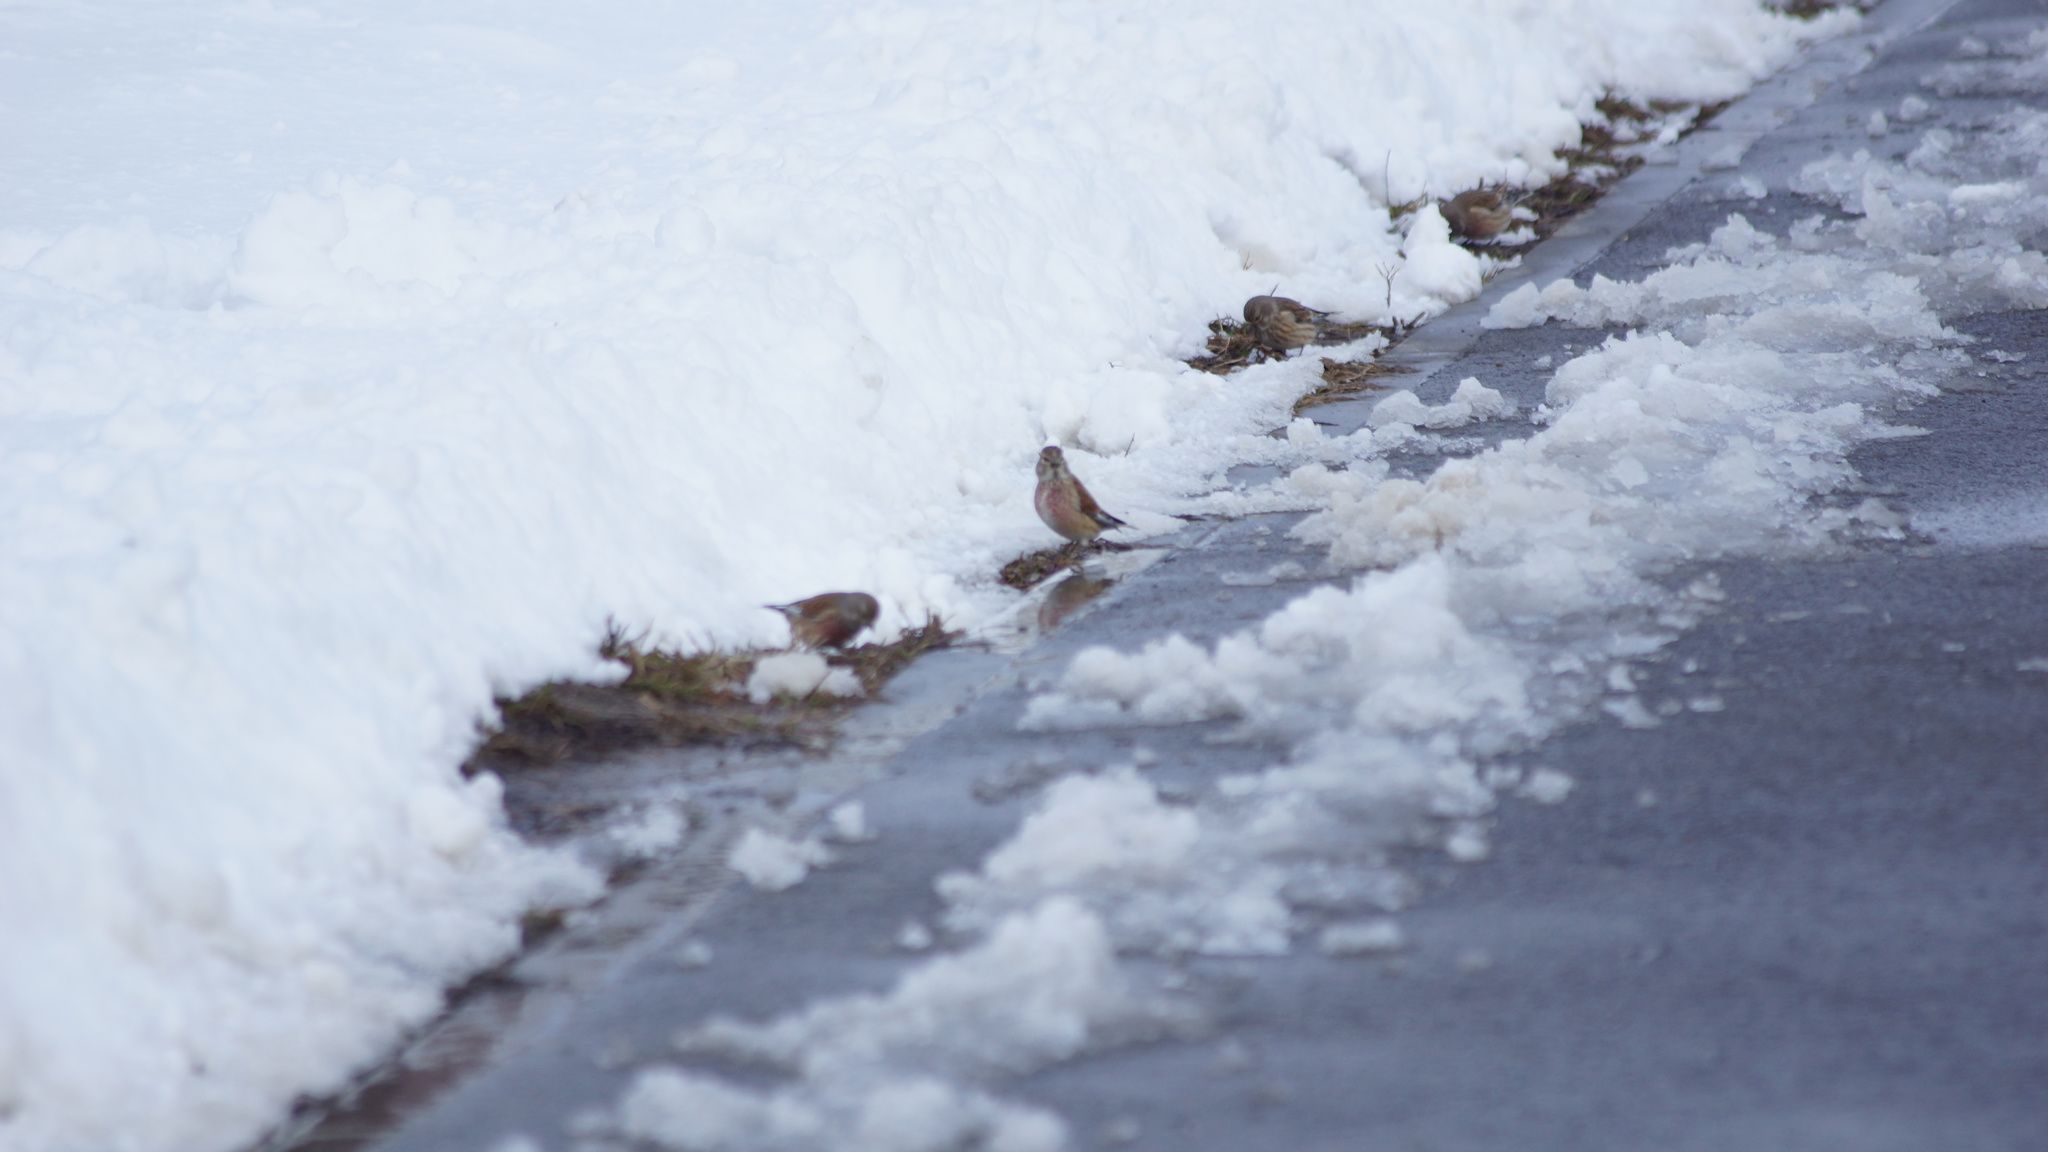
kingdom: Animalia
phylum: Chordata
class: Aves
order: Passeriformes
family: Fringillidae
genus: Linaria
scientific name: Linaria cannabina
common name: Common linnet
